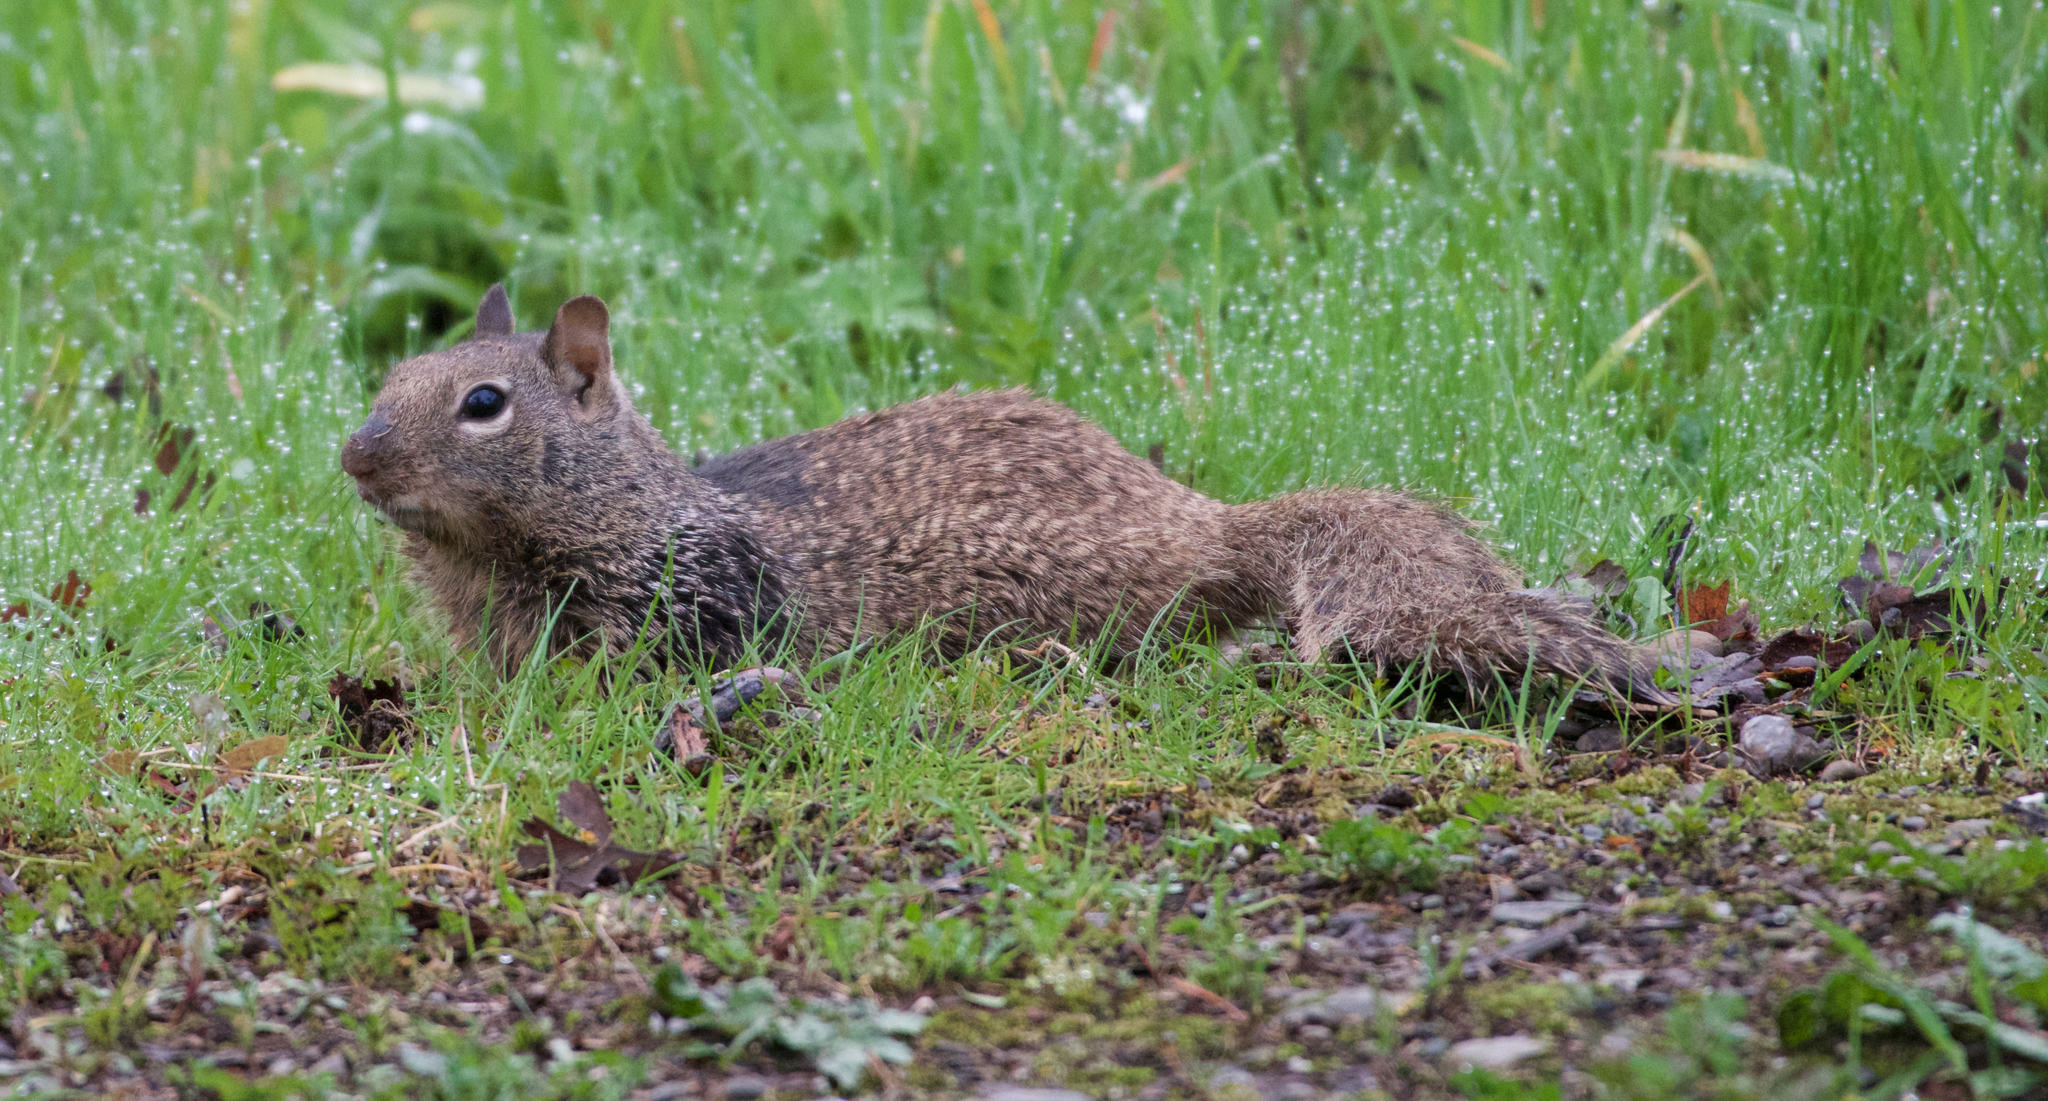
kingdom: Animalia
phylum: Chordata
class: Mammalia
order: Rodentia
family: Sciuridae
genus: Otospermophilus
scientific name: Otospermophilus beecheyi
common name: California ground squirrel
